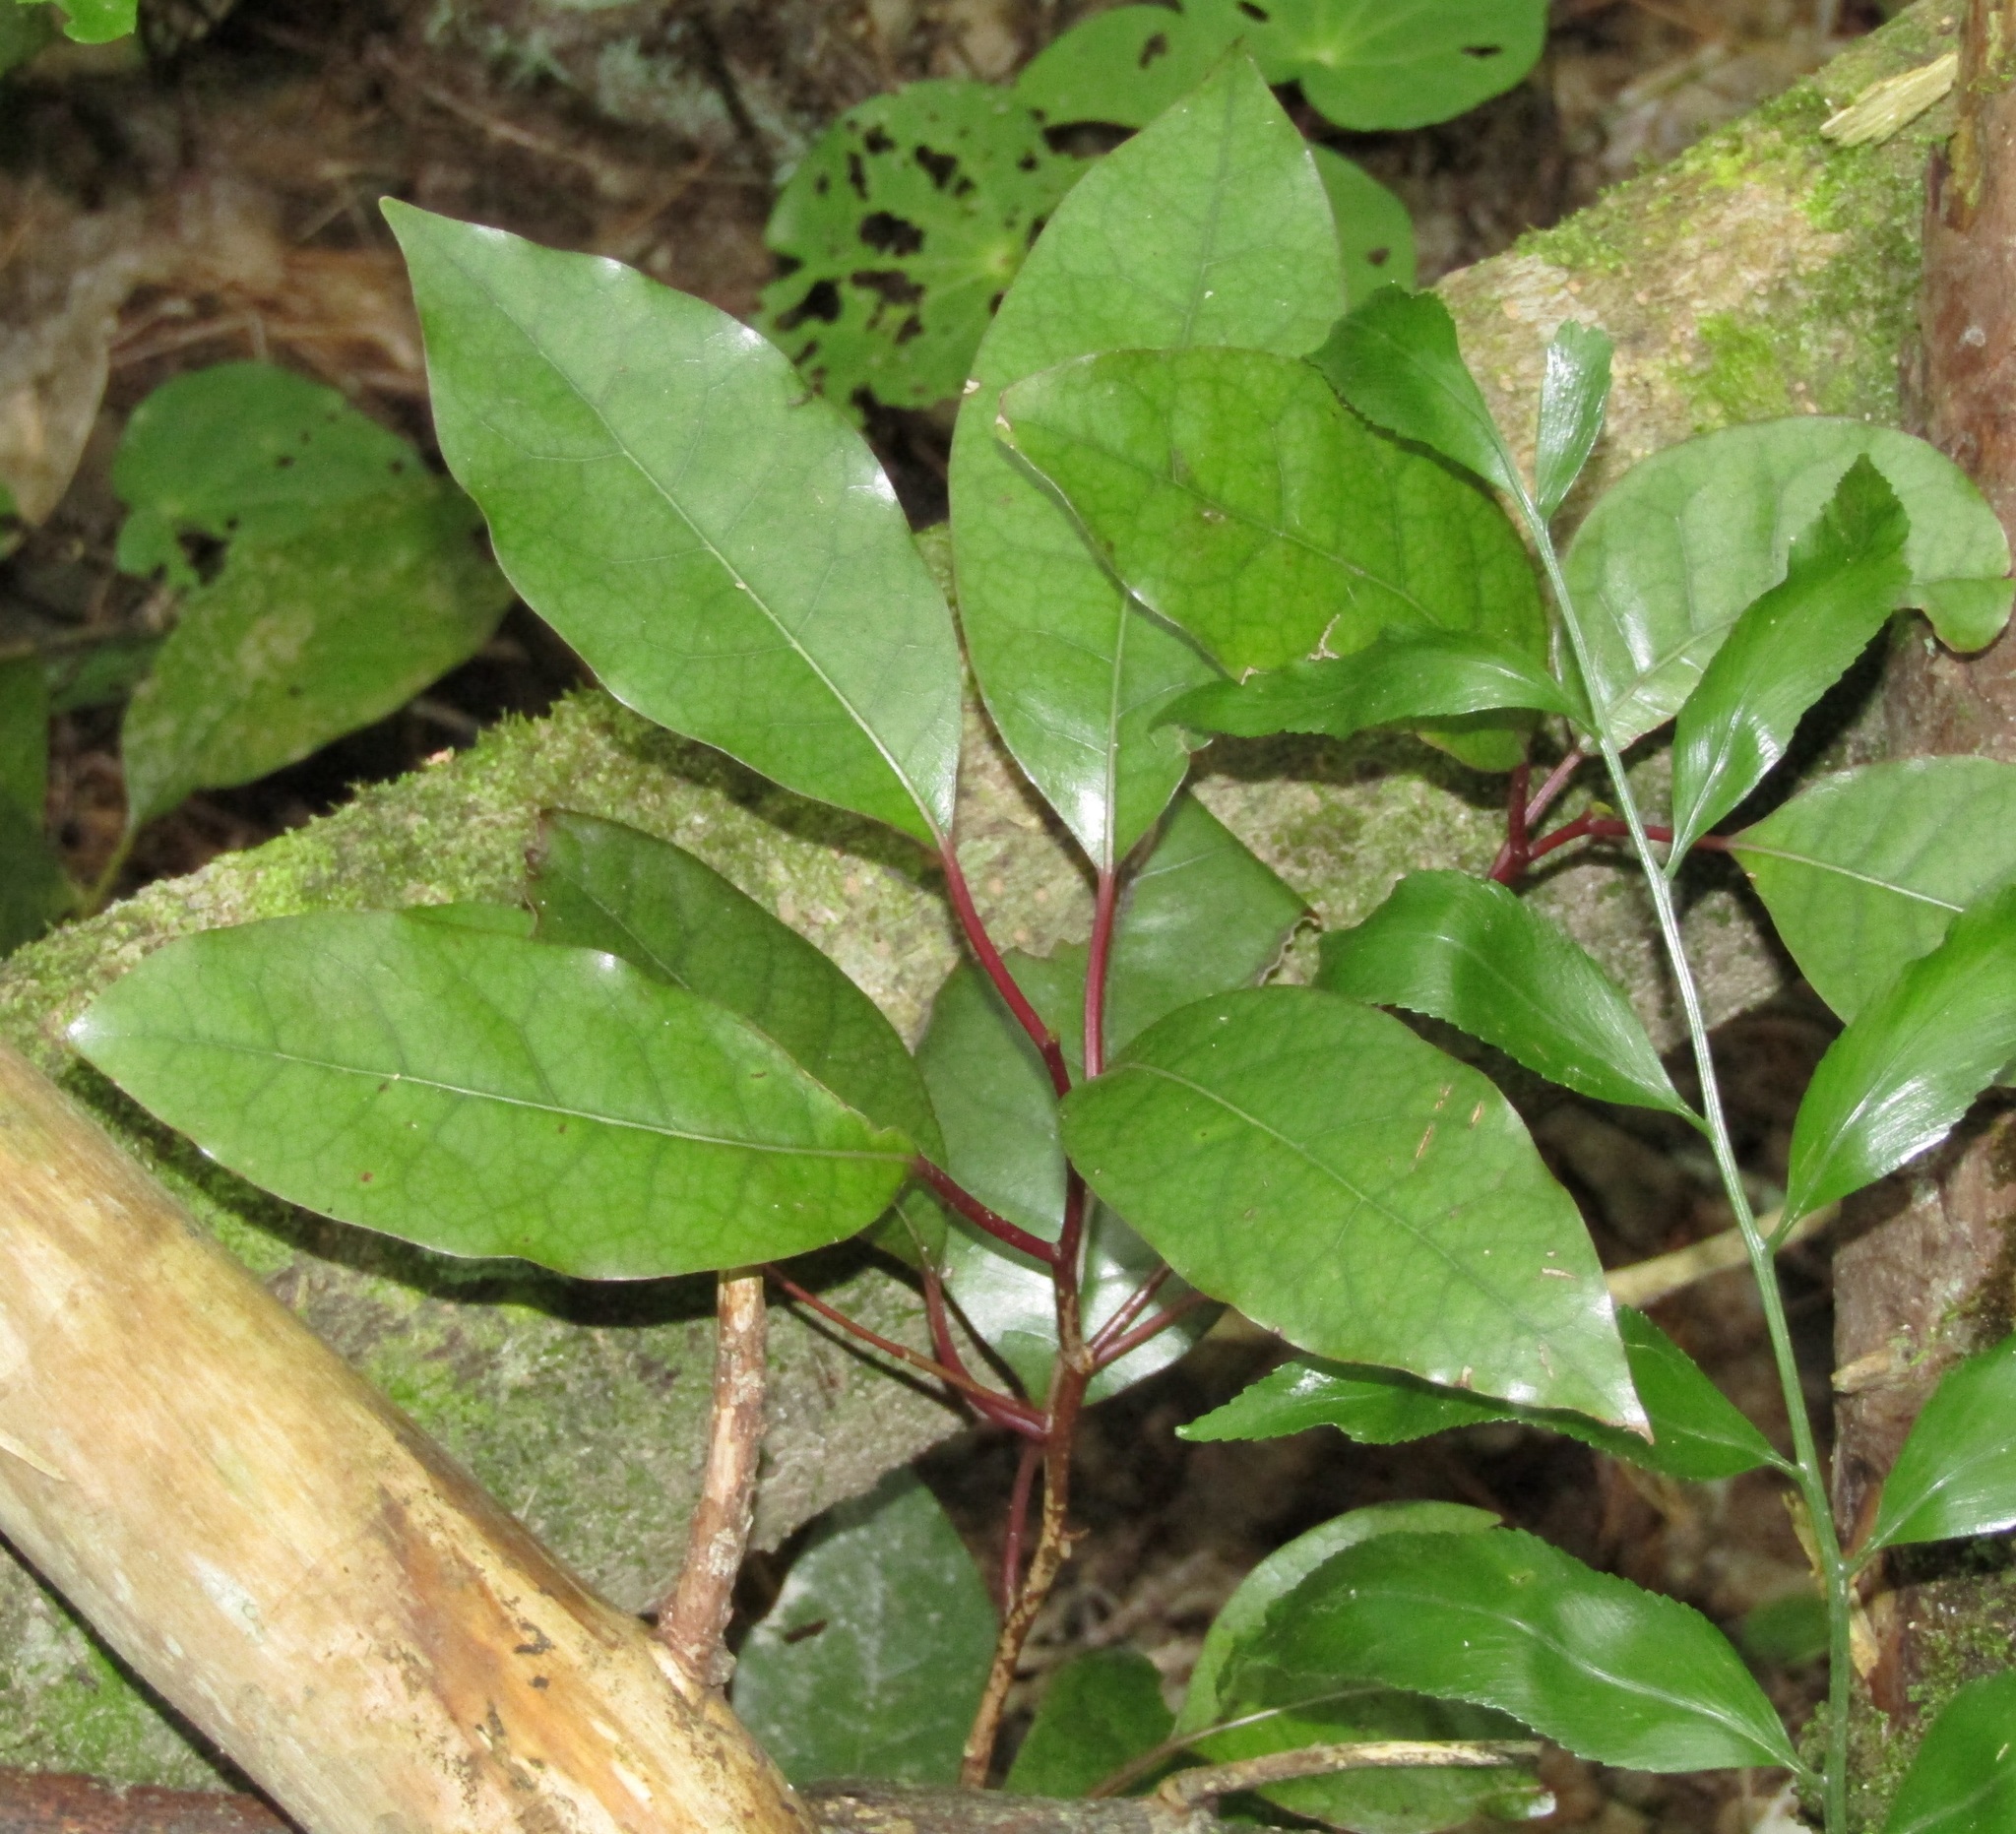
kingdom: Plantae
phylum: Tracheophyta
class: Magnoliopsida
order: Laurales
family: Lauraceae
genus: Litsea
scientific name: Litsea calicaris
